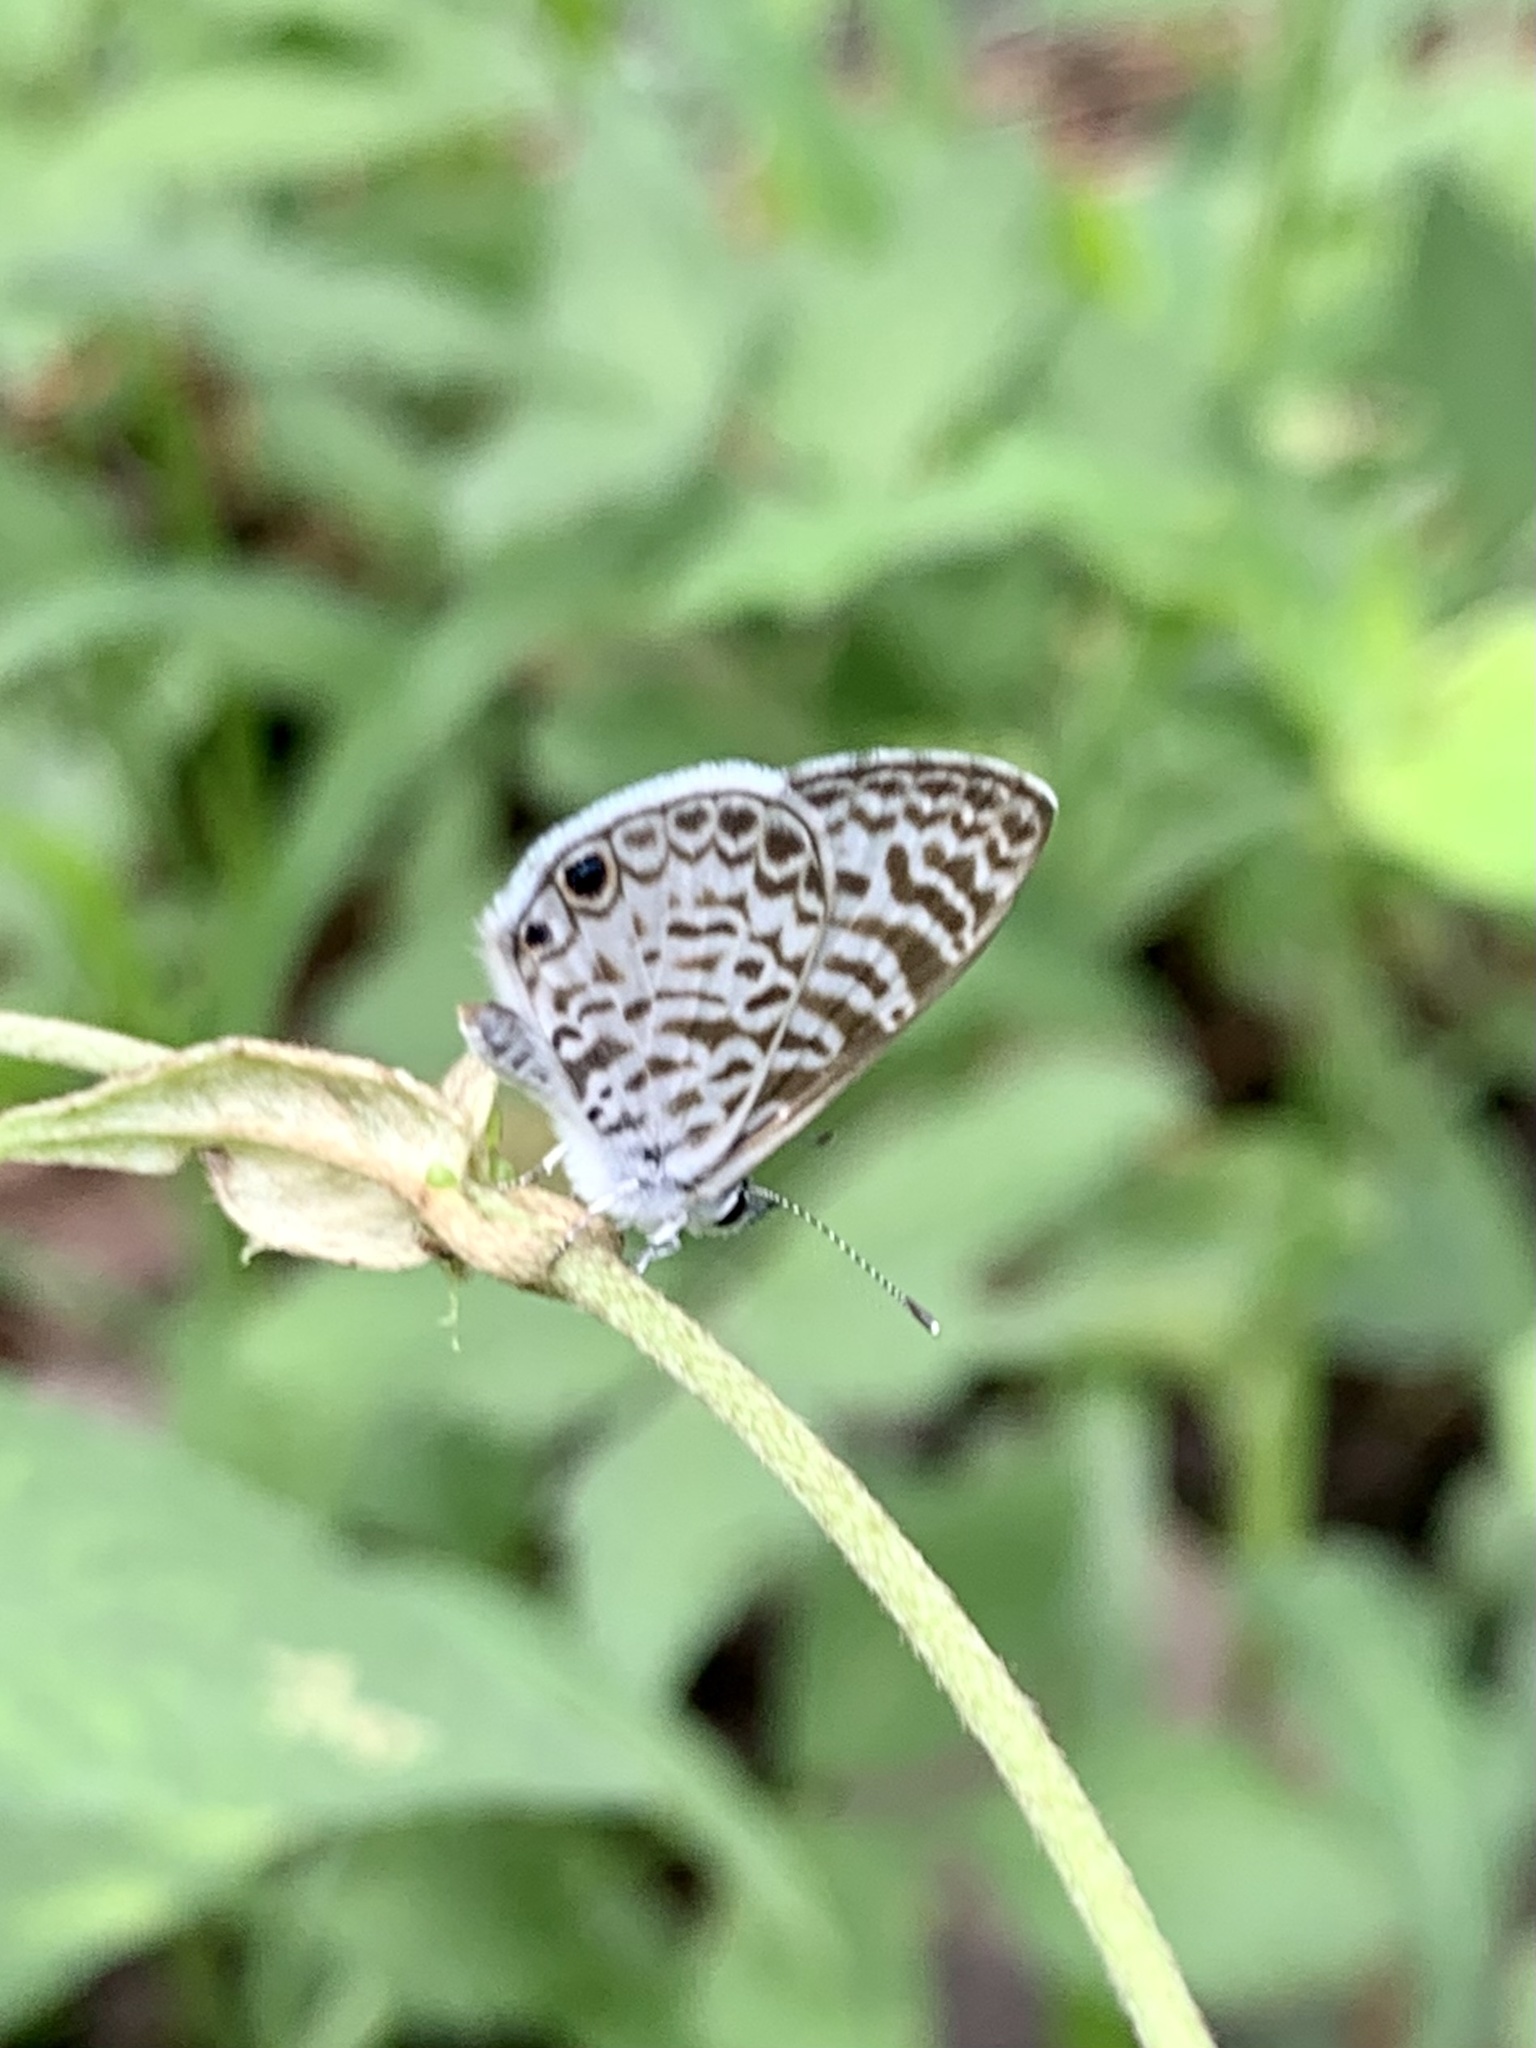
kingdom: Animalia
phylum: Arthropoda
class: Insecta
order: Lepidoptera
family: Lycaenidae
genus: Leptotes
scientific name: Leptotes theonus
